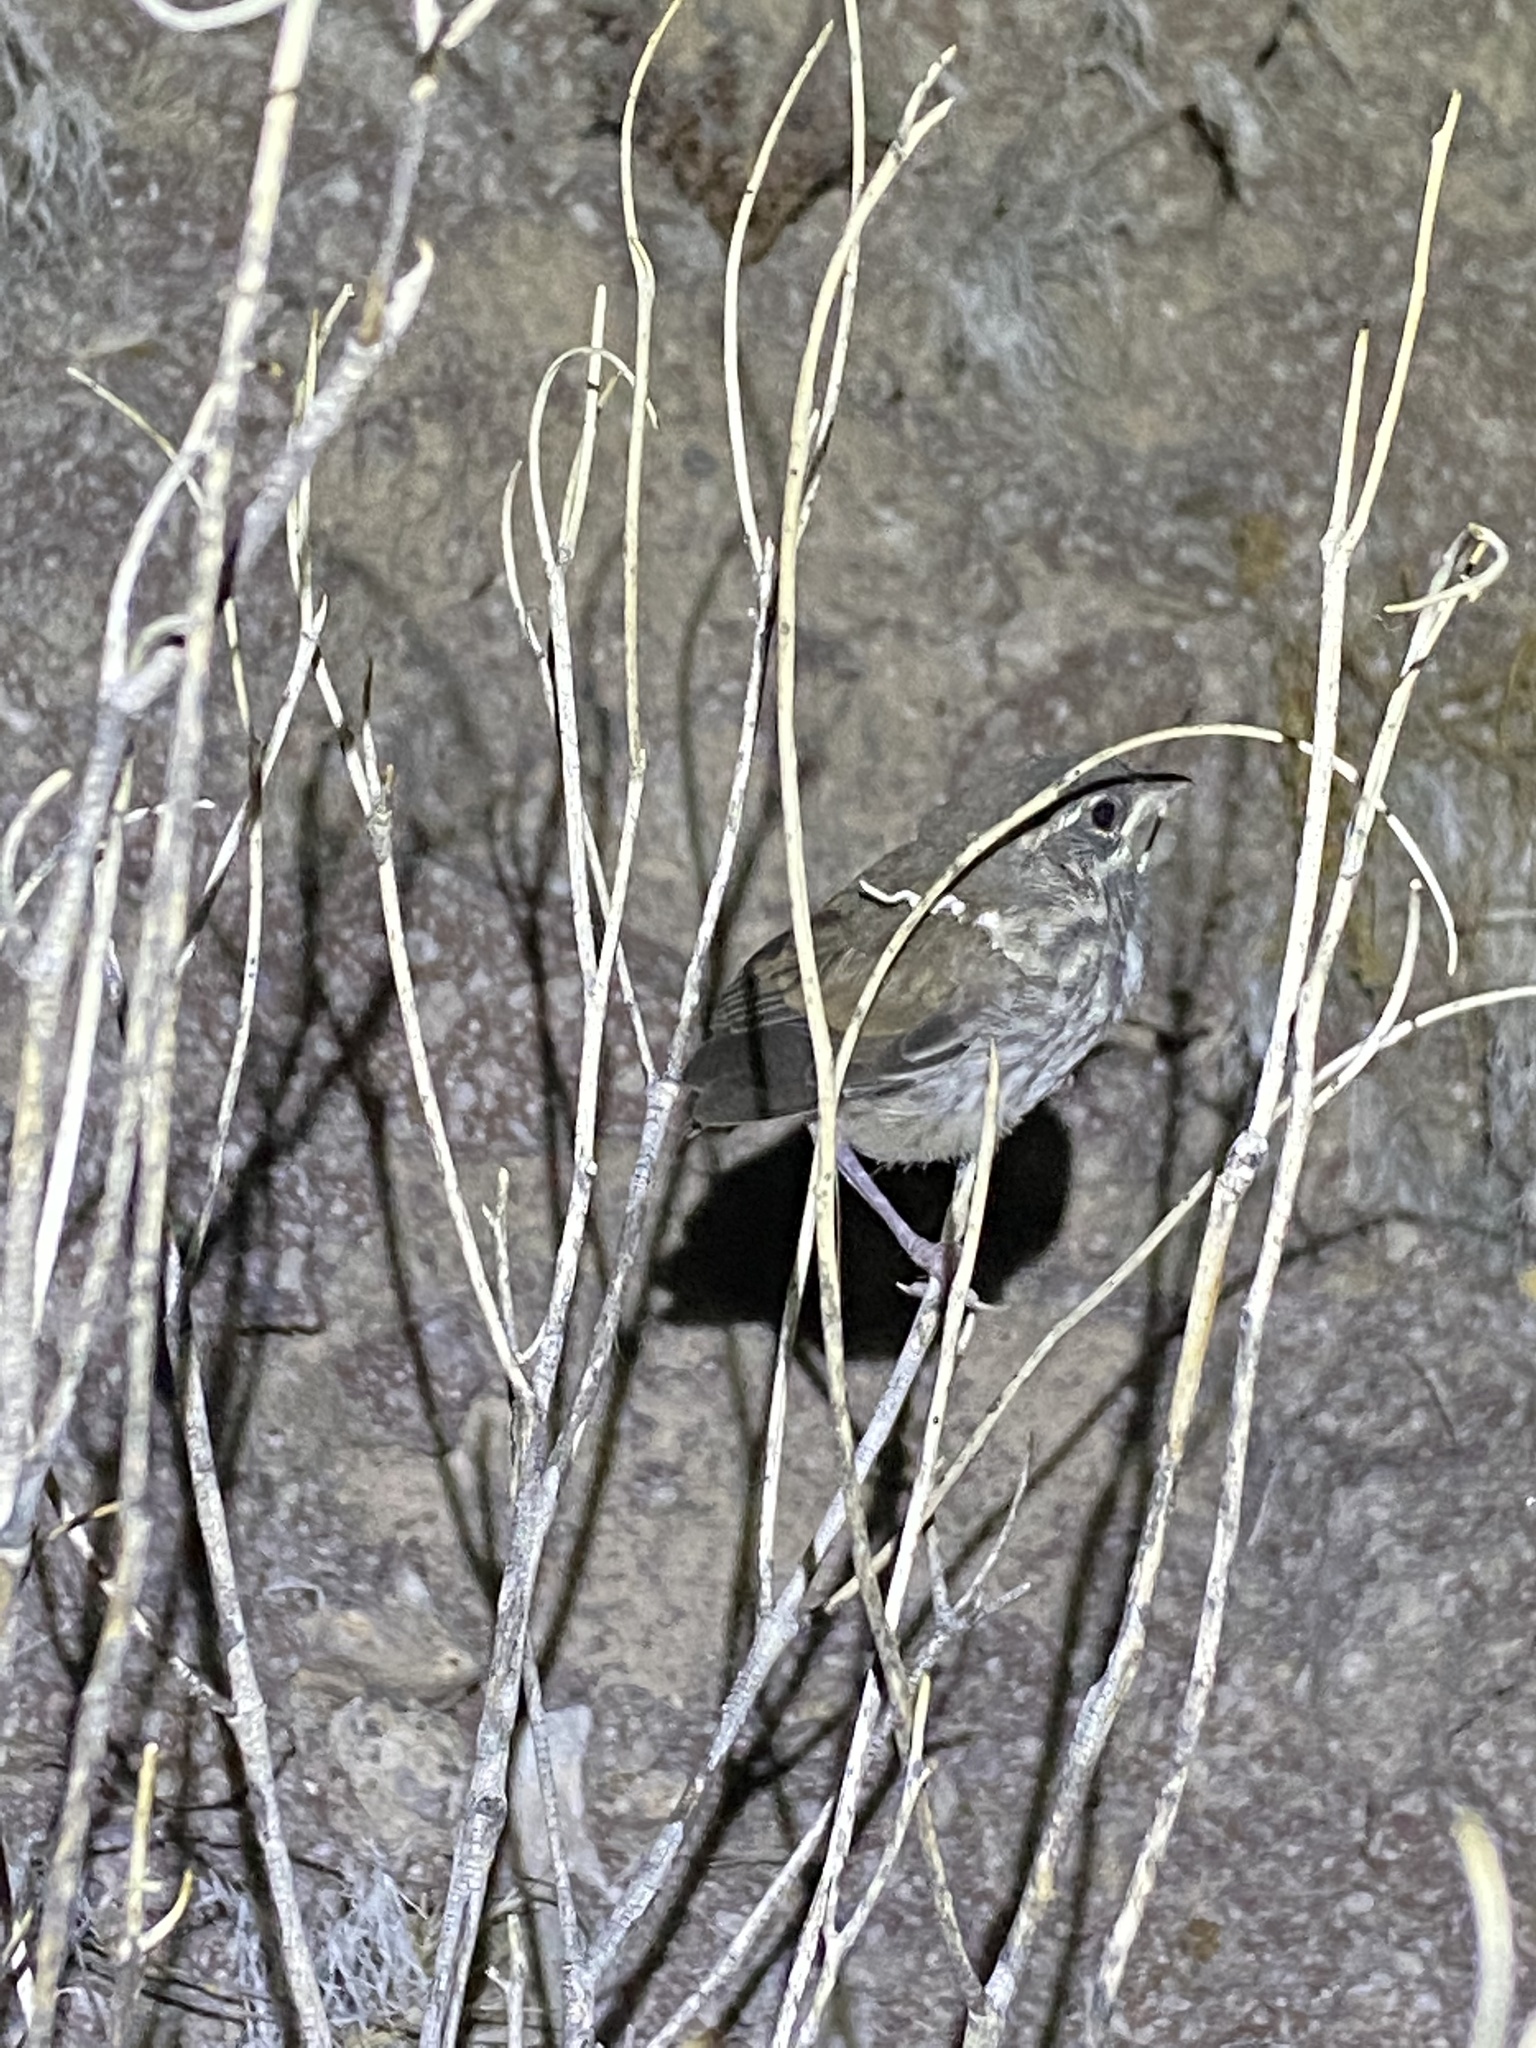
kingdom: Animalia
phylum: Chordata
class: Aves
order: Passeriformes
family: Passerellidae
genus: Amphispiza
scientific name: Amphispiza bilineata
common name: Black-throated sparrow
